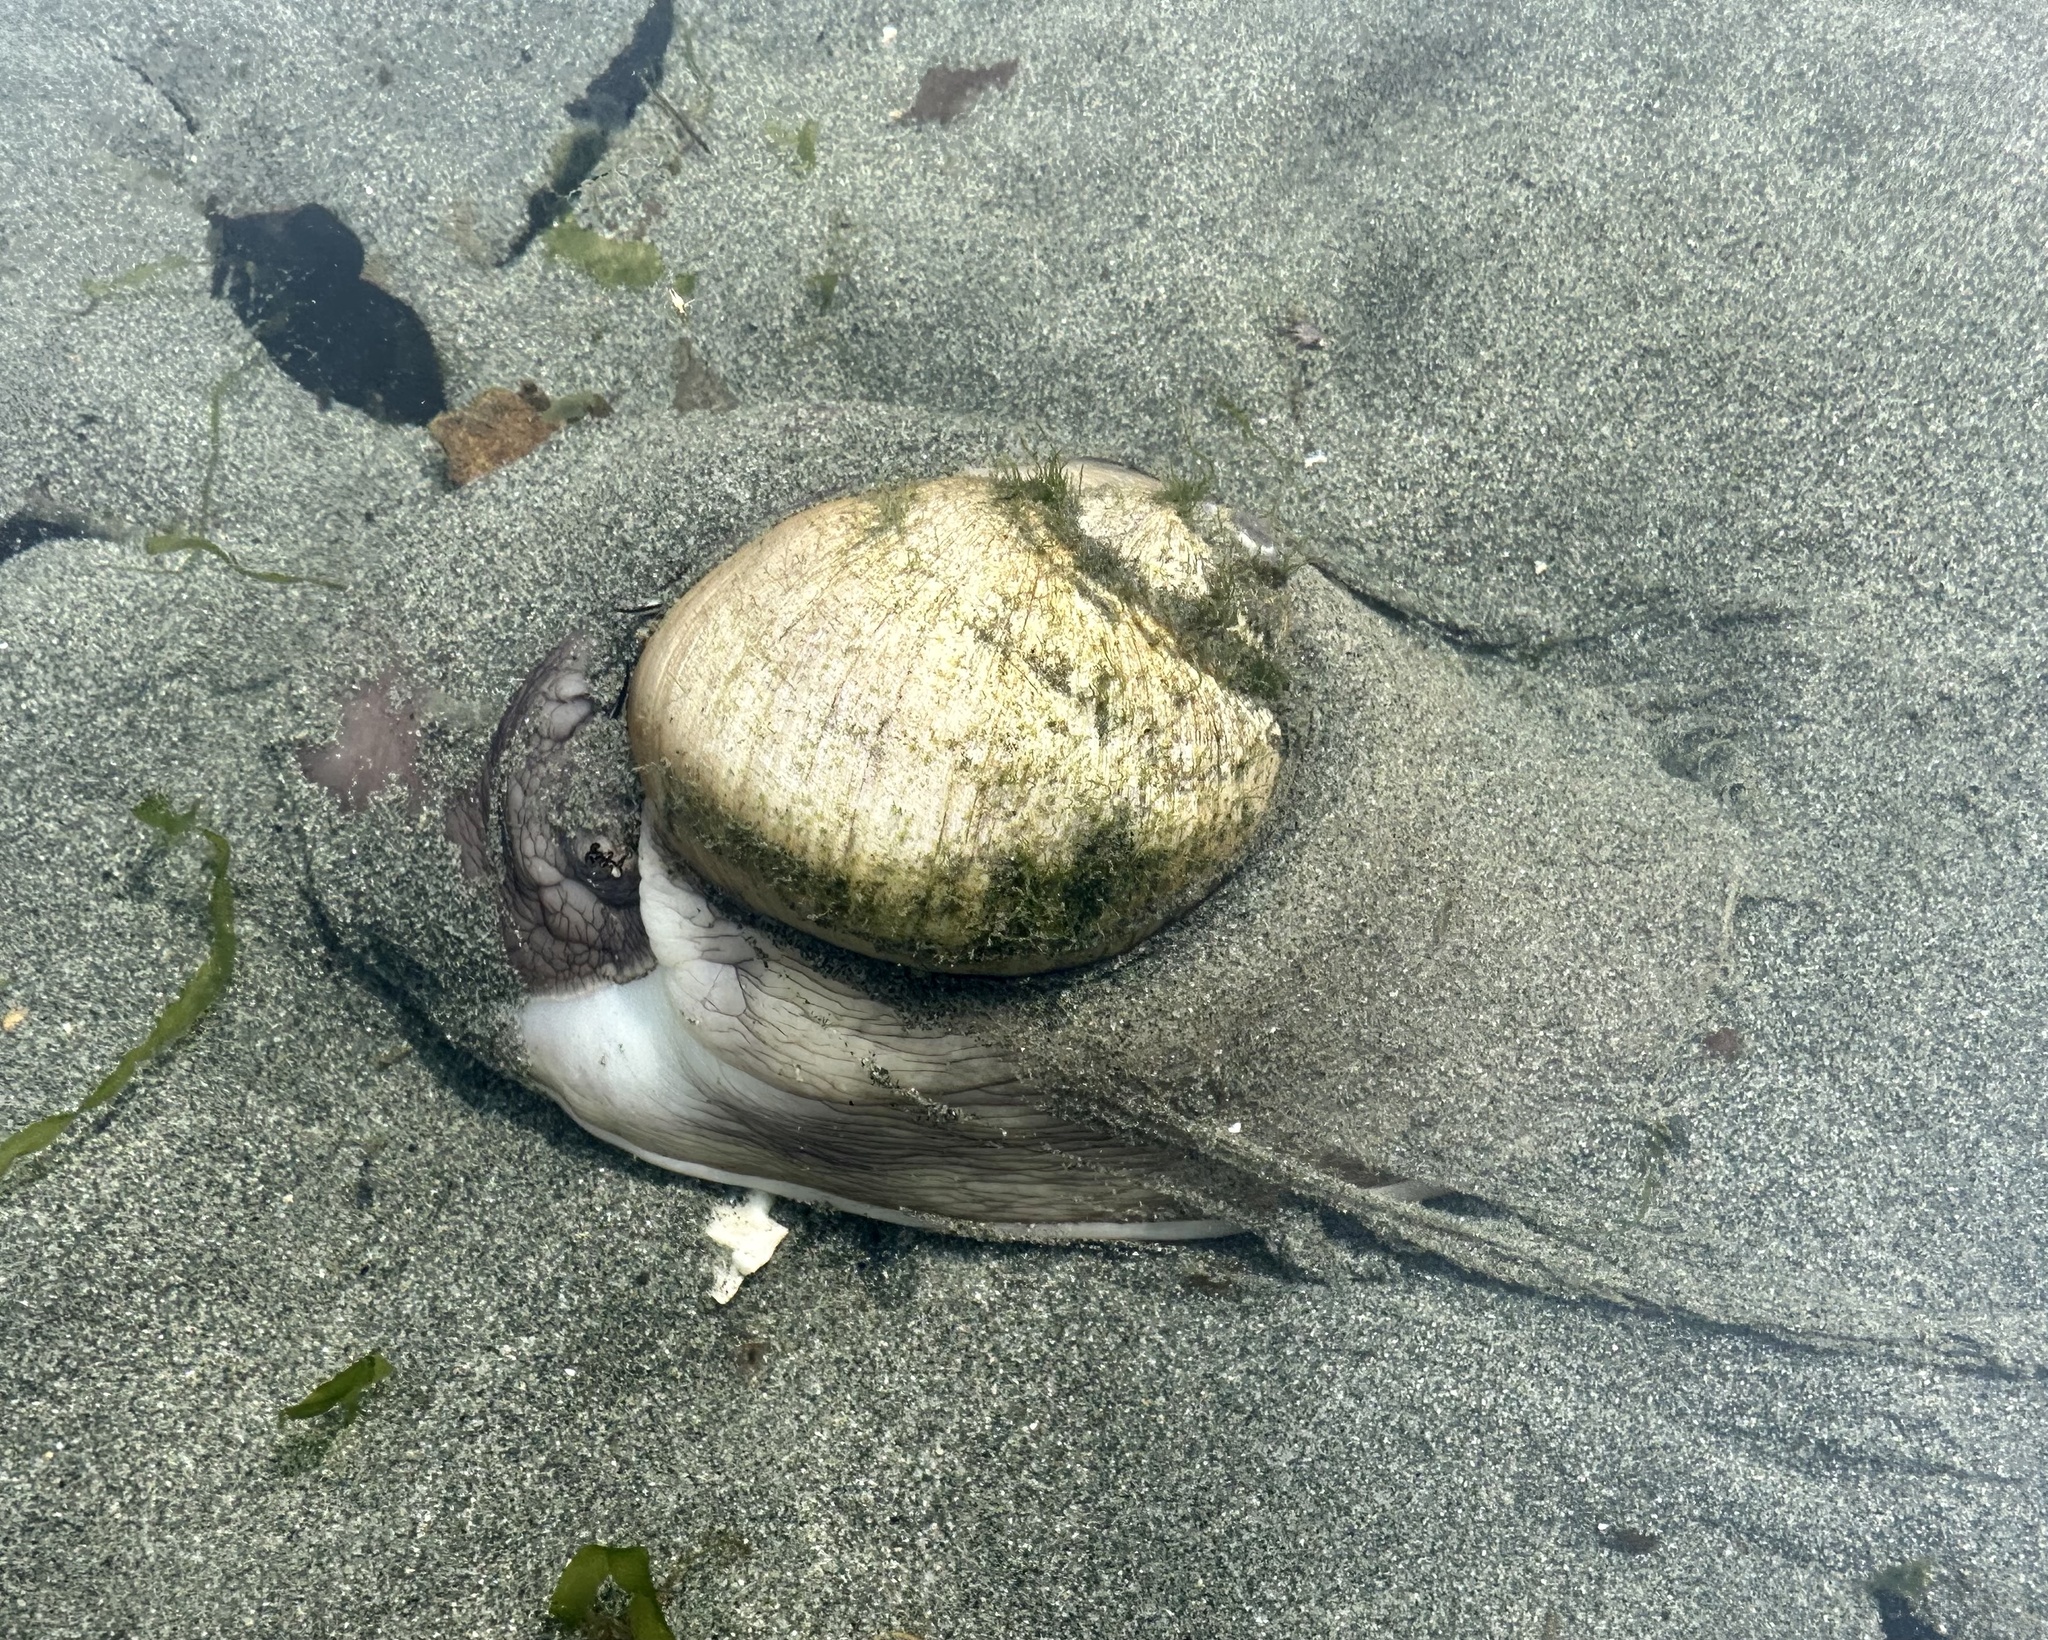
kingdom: Animalia
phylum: Mollusca
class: Gastropoda
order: Littorinimorpha
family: Naticidae
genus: Neverita
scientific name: Neverita lewisii
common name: Lewis' moonsnail
